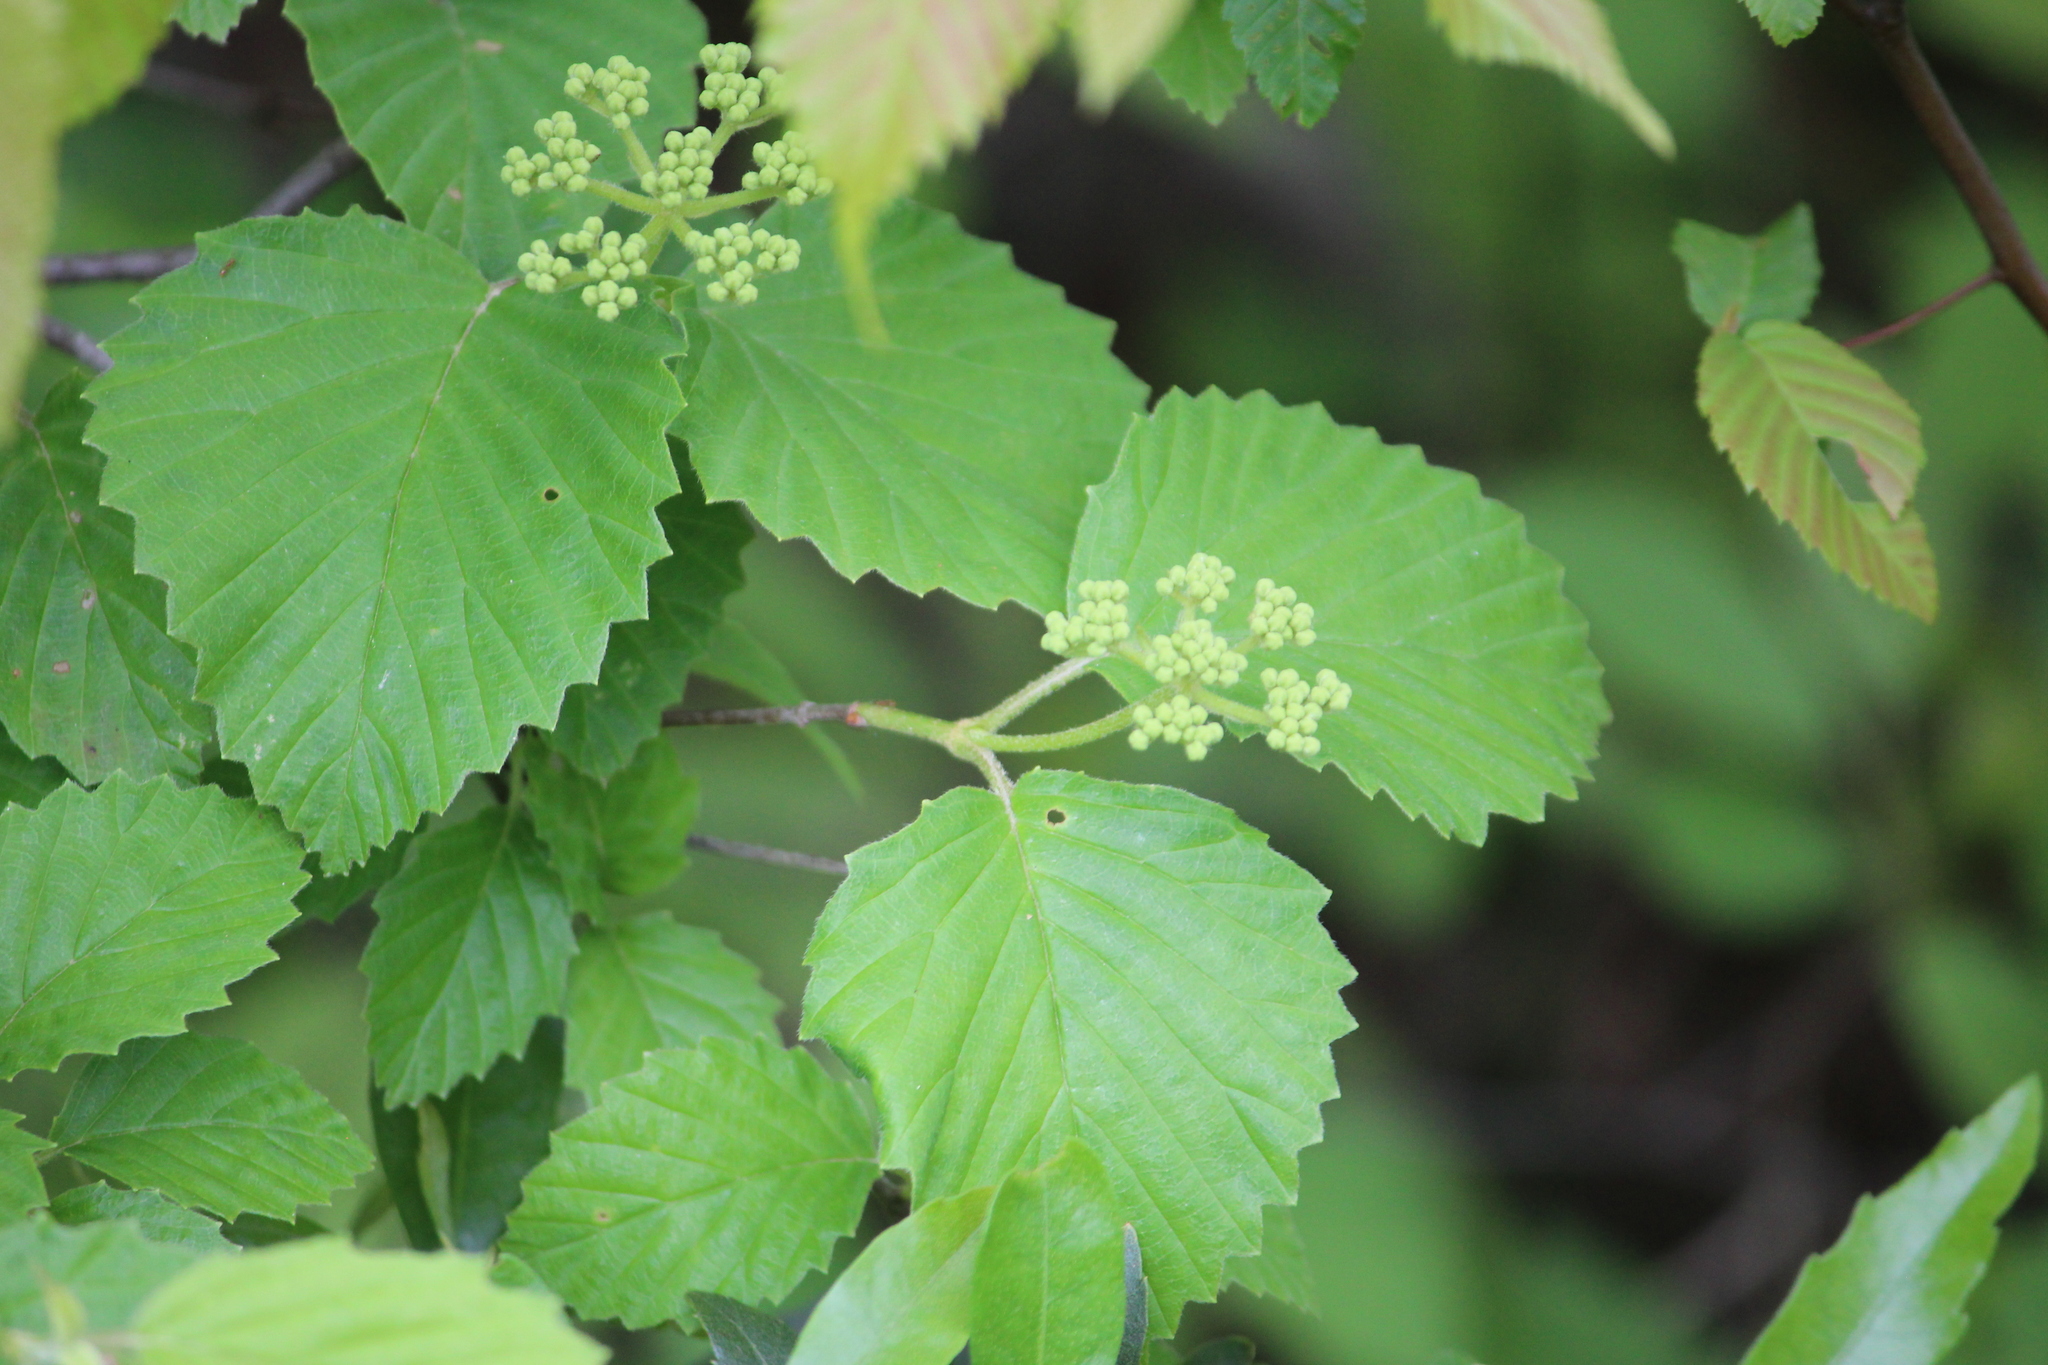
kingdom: Plantae
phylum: Tracheophyta
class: Magnoliopsida
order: Dipsacales
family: Viburnaceae
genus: Viburnum
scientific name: Viburnum dentatum
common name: Arrow-wood
